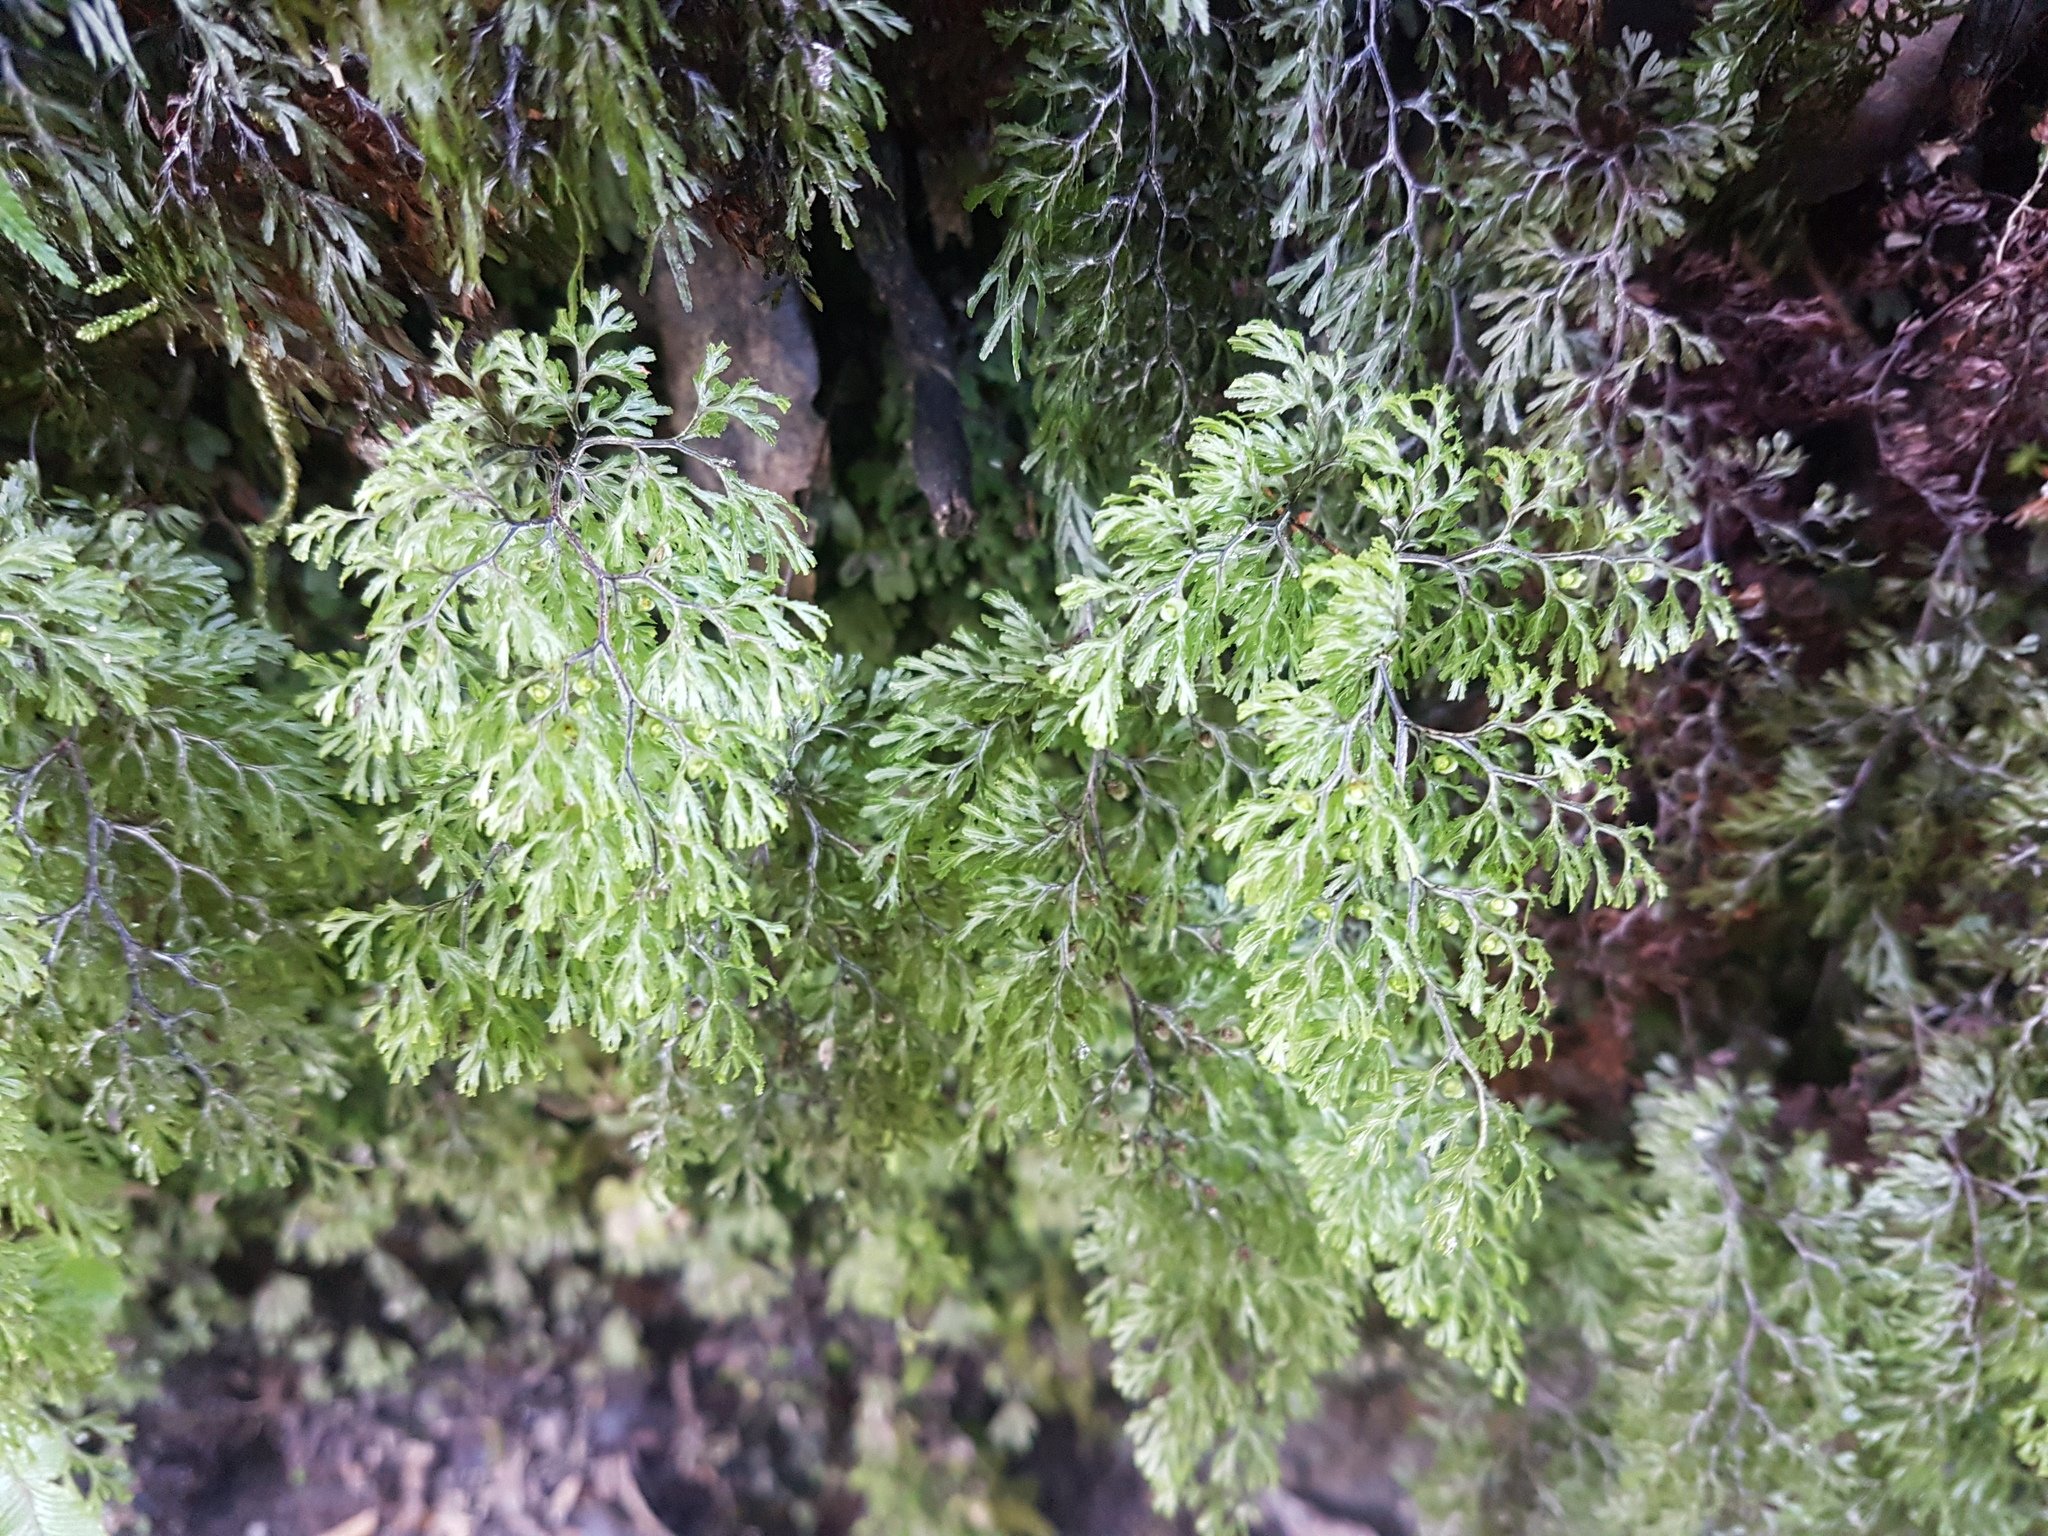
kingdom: Plantae
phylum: Tracheophyta
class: Polypodiopsida
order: Hymenophyllales
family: Hymenophyllaceae
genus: Hymenophyllum
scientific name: Hymenophyllum multifidum
